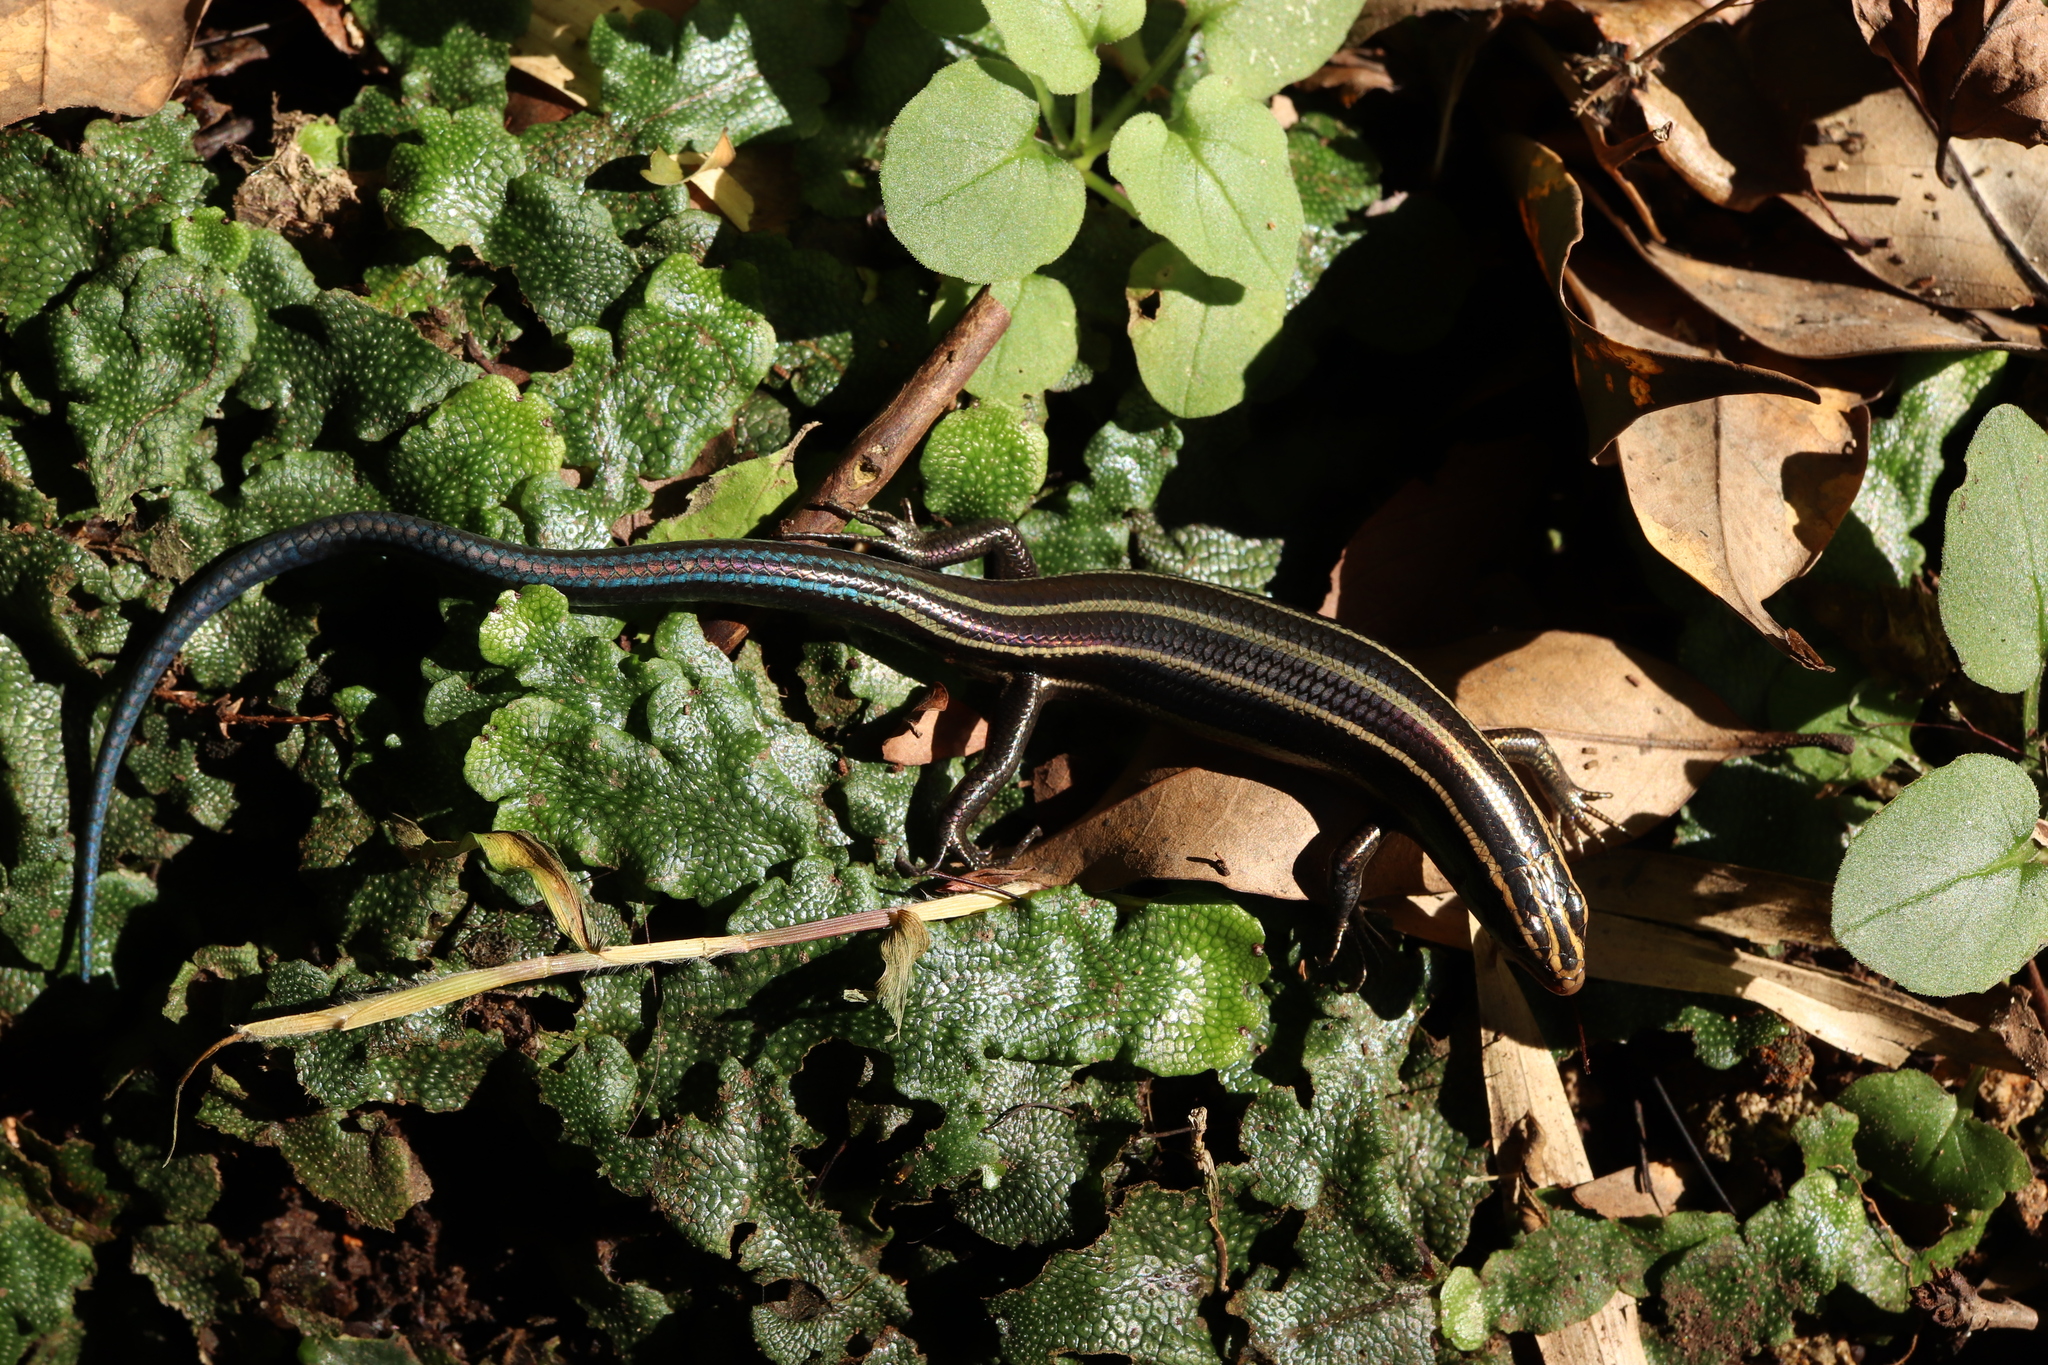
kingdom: Animalia
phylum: Chordata
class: Squamata
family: Scincidae
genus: Plestiodon
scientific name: Plestiodon finitimus
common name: Far eastern skink
